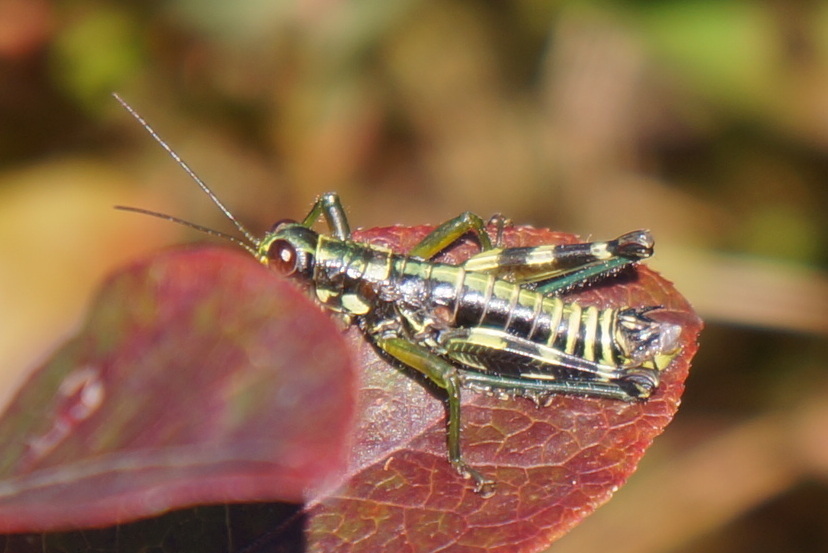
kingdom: Animalia
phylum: Arthropoda
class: Insecta
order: Orthoptera
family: Acrididae
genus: Booneacris
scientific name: Booneacris glacialis
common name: Wingless mountain grasshopper
